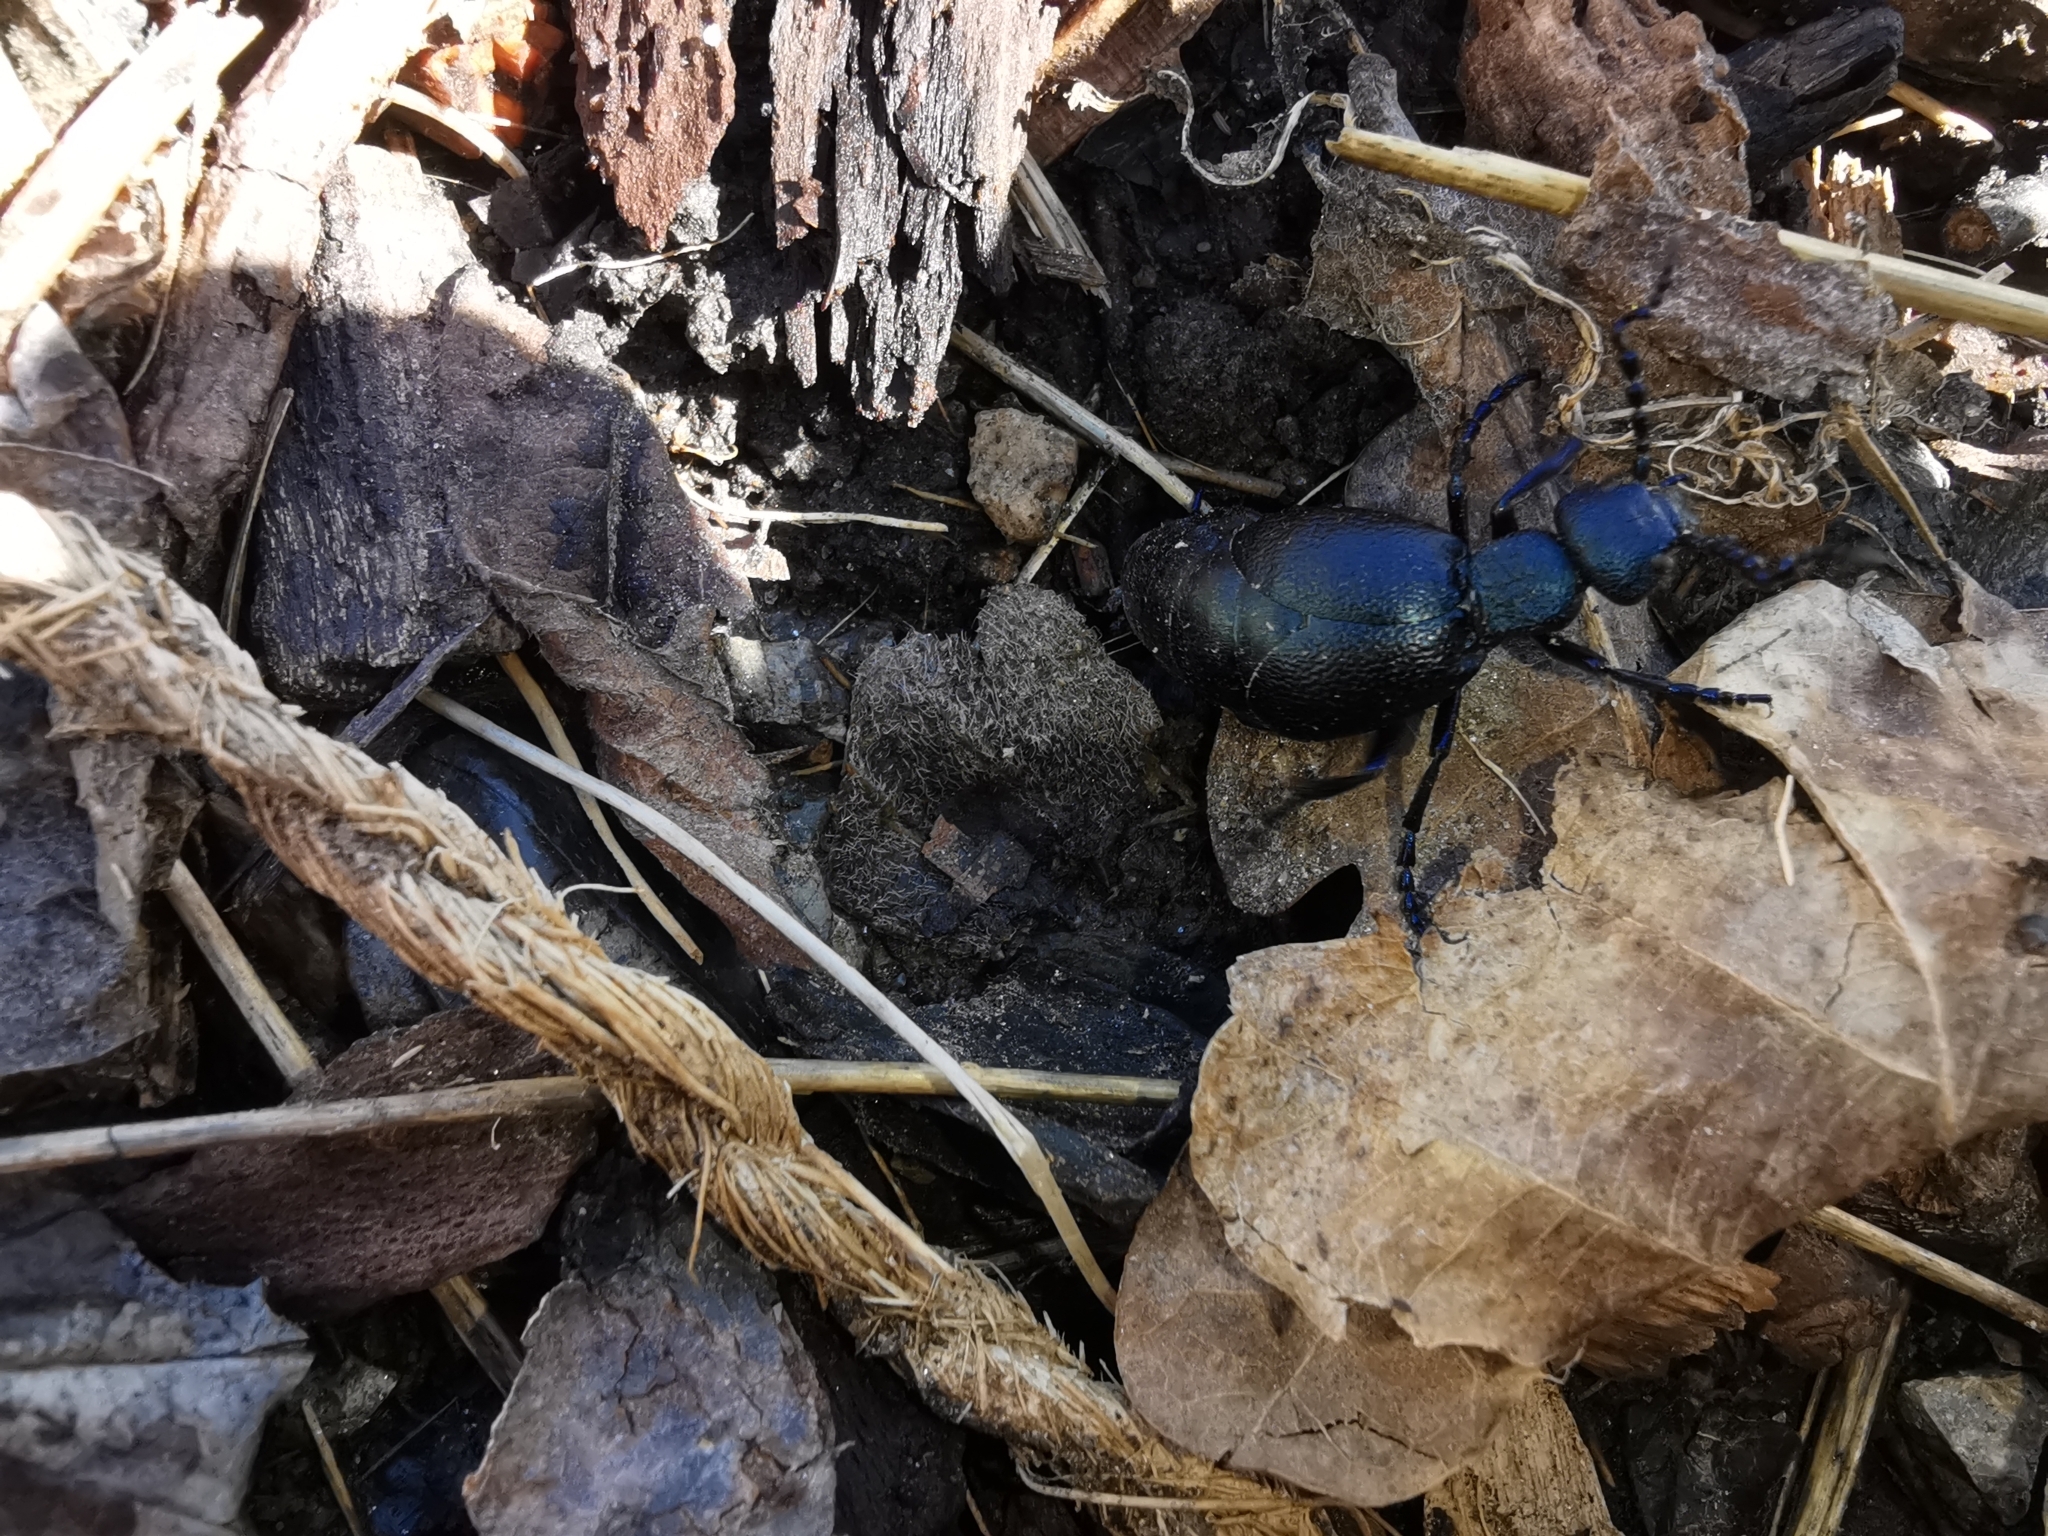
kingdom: Animalia
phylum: Arthropoda
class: Insecta
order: Coleoptera
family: Meloidae
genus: Meloe
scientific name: Meloe proscarabaeus
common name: Black oil-beetle
